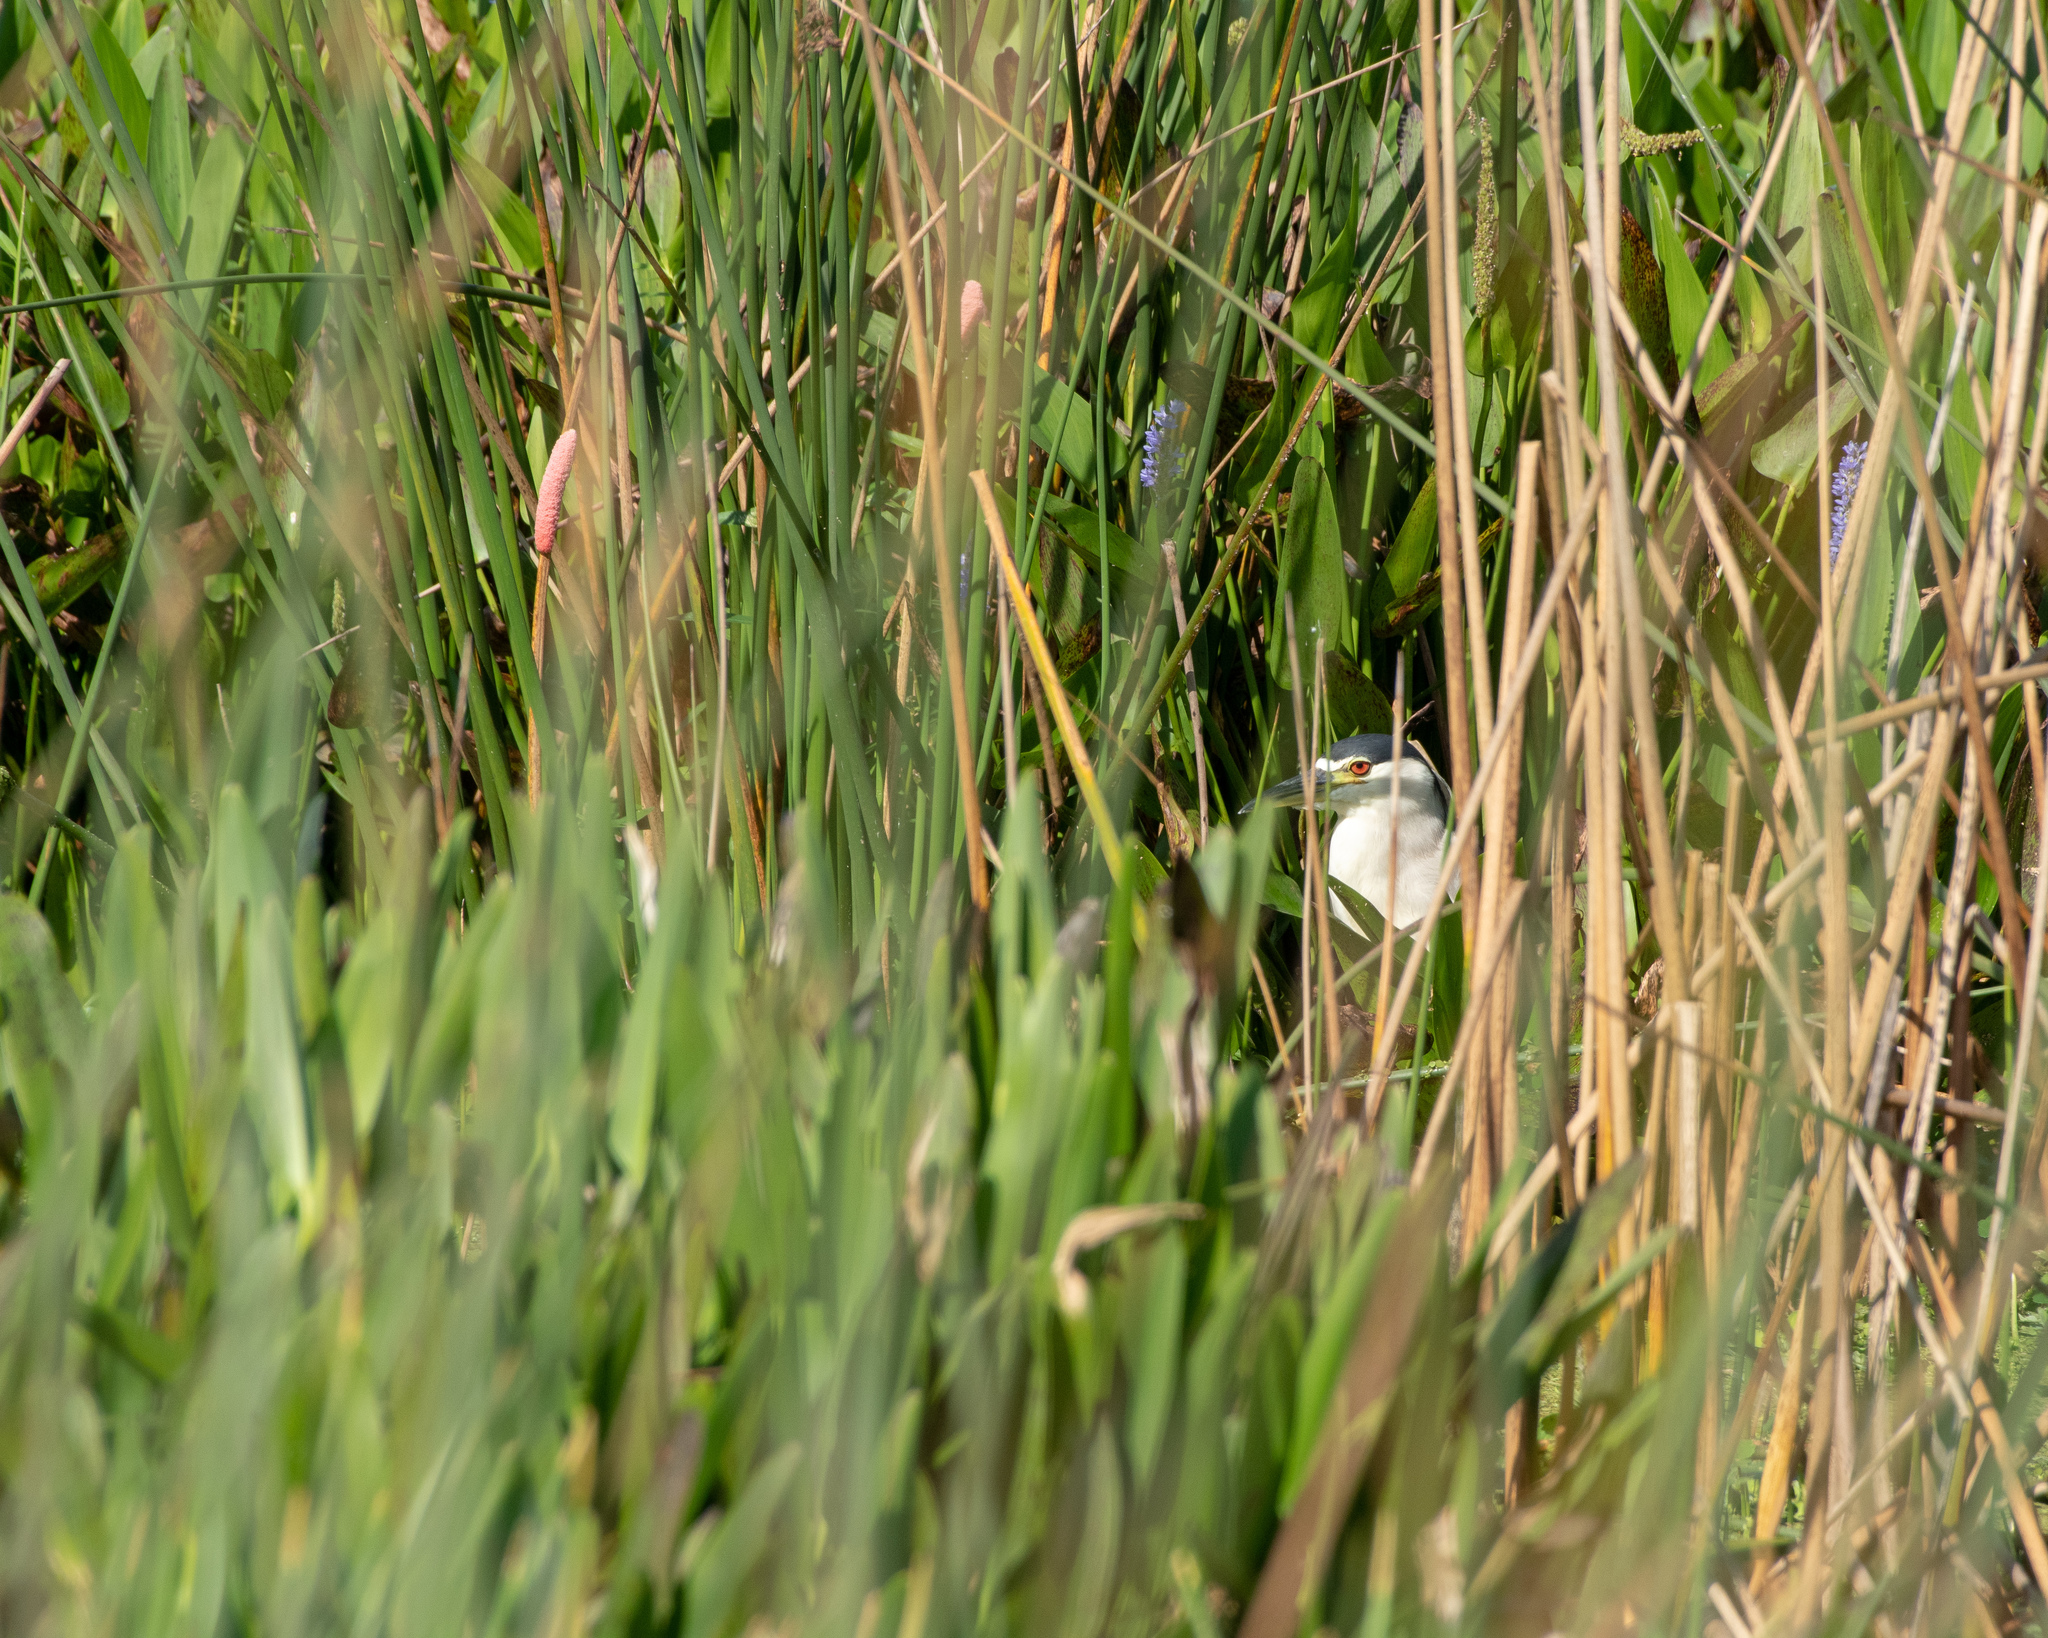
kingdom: Animalia
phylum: Chordata
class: Aves
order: Pelecaniformes
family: Ardeidae
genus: Nycticorax
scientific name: Nycticorax nycticorax
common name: Black-crowned night heron
